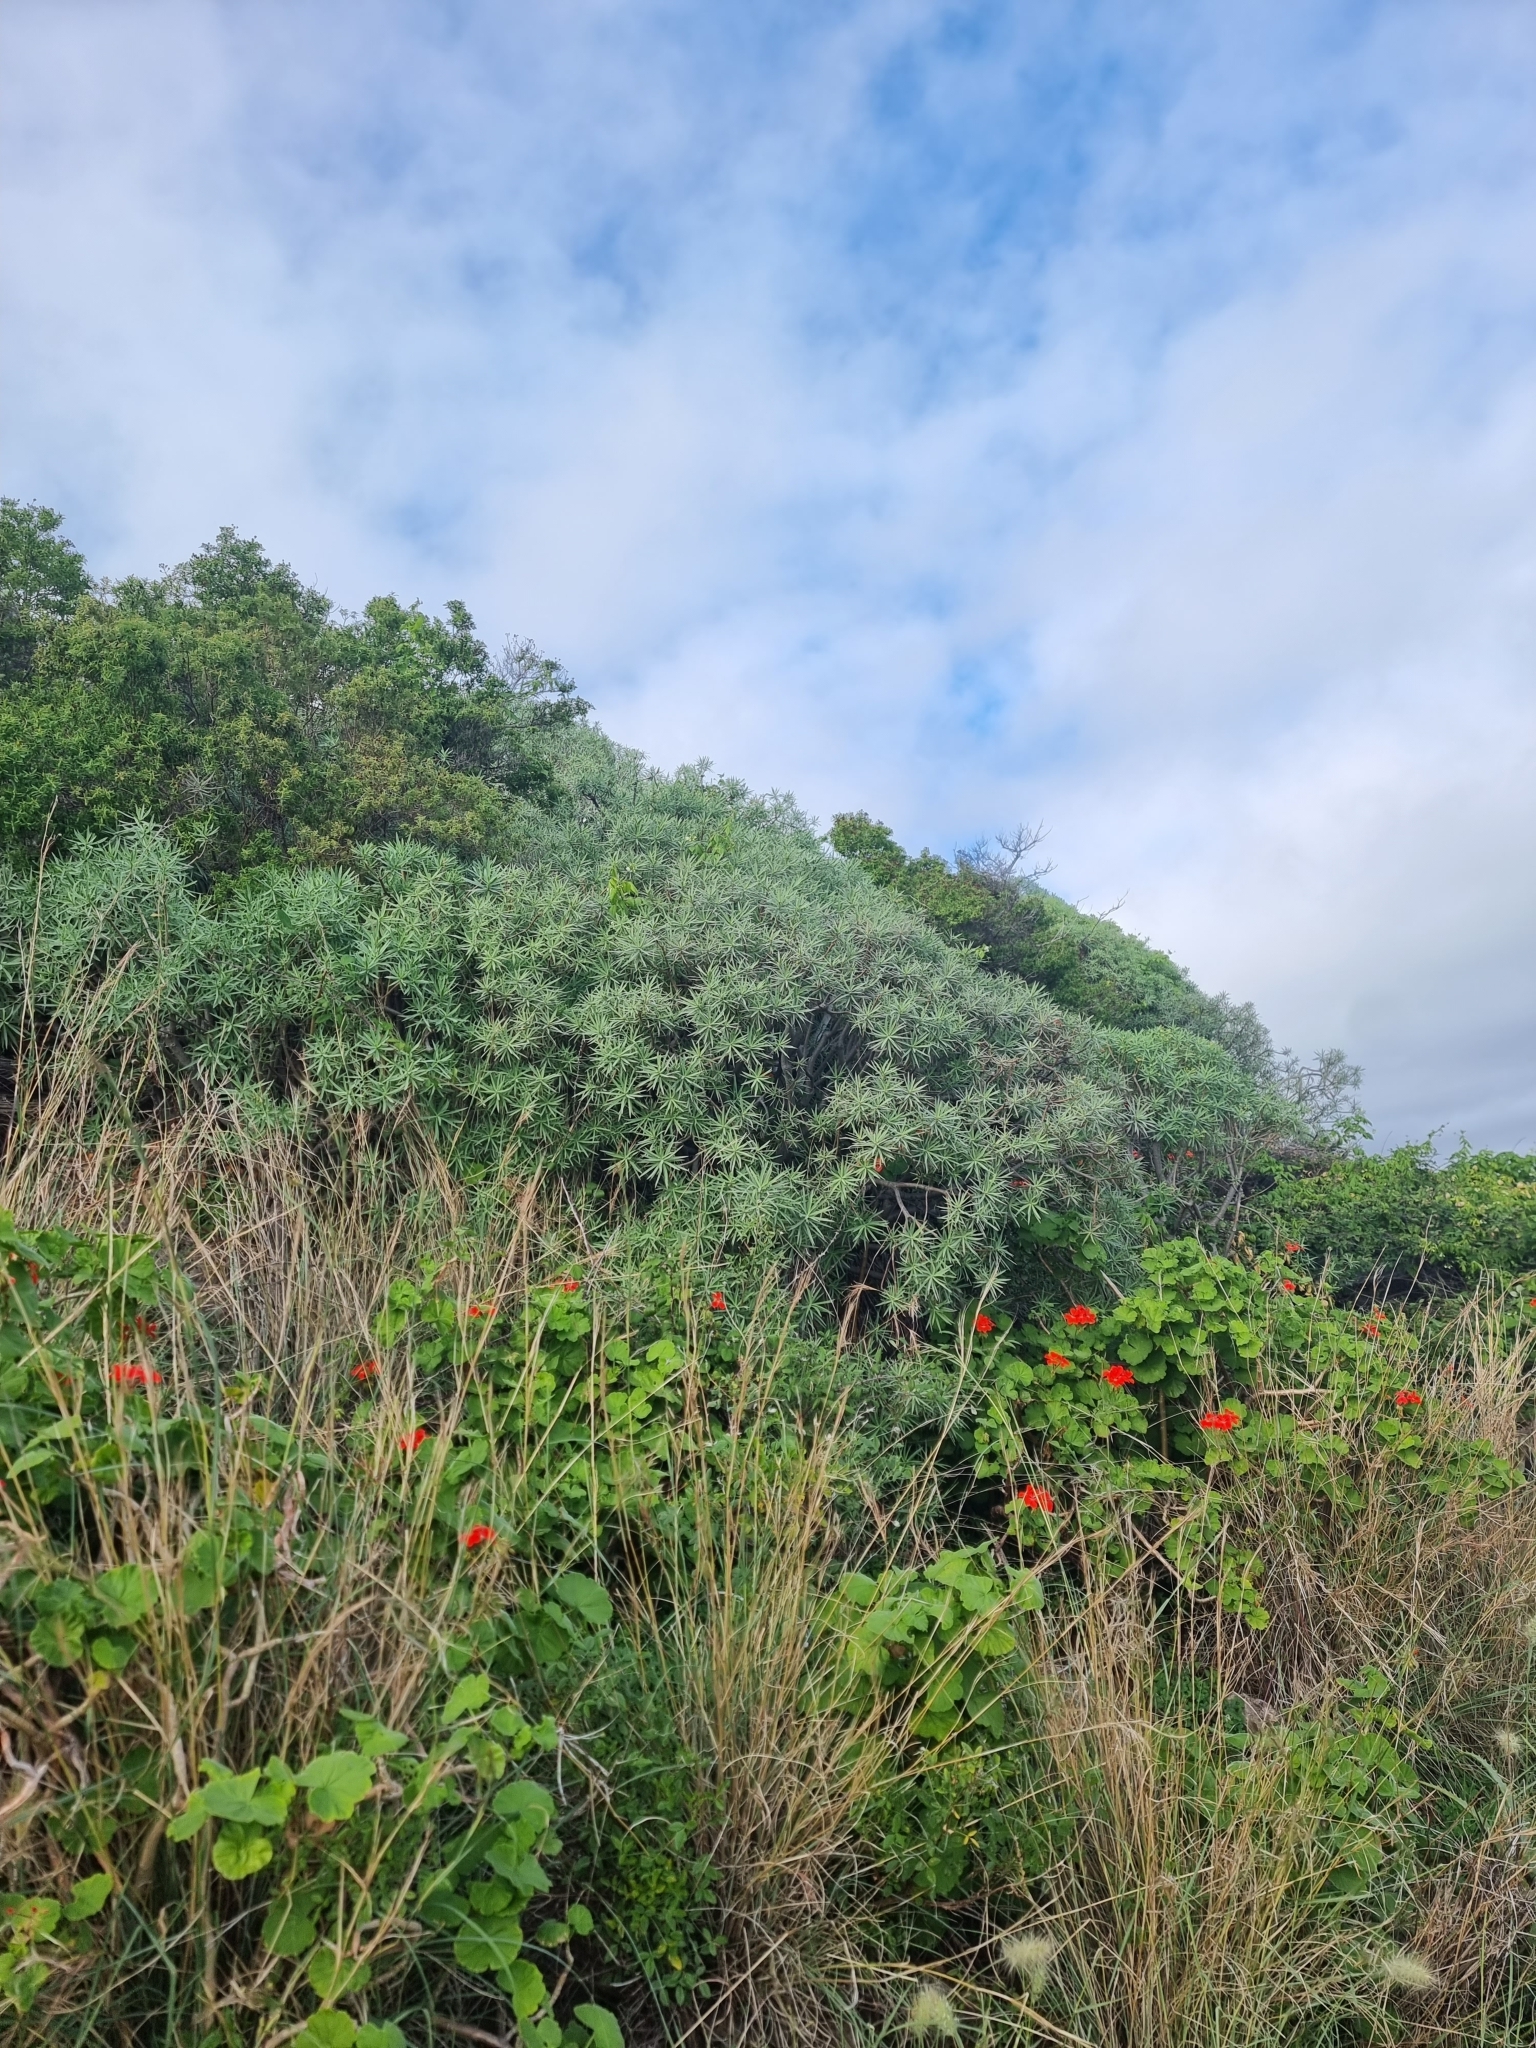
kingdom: Plantae
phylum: Tracheophyta
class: Magnoliopsida
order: Malpighiales
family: Euphorbiaceae
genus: Euphorbia
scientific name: Euphorbia piscatoria
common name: Fish-stunning spurge
